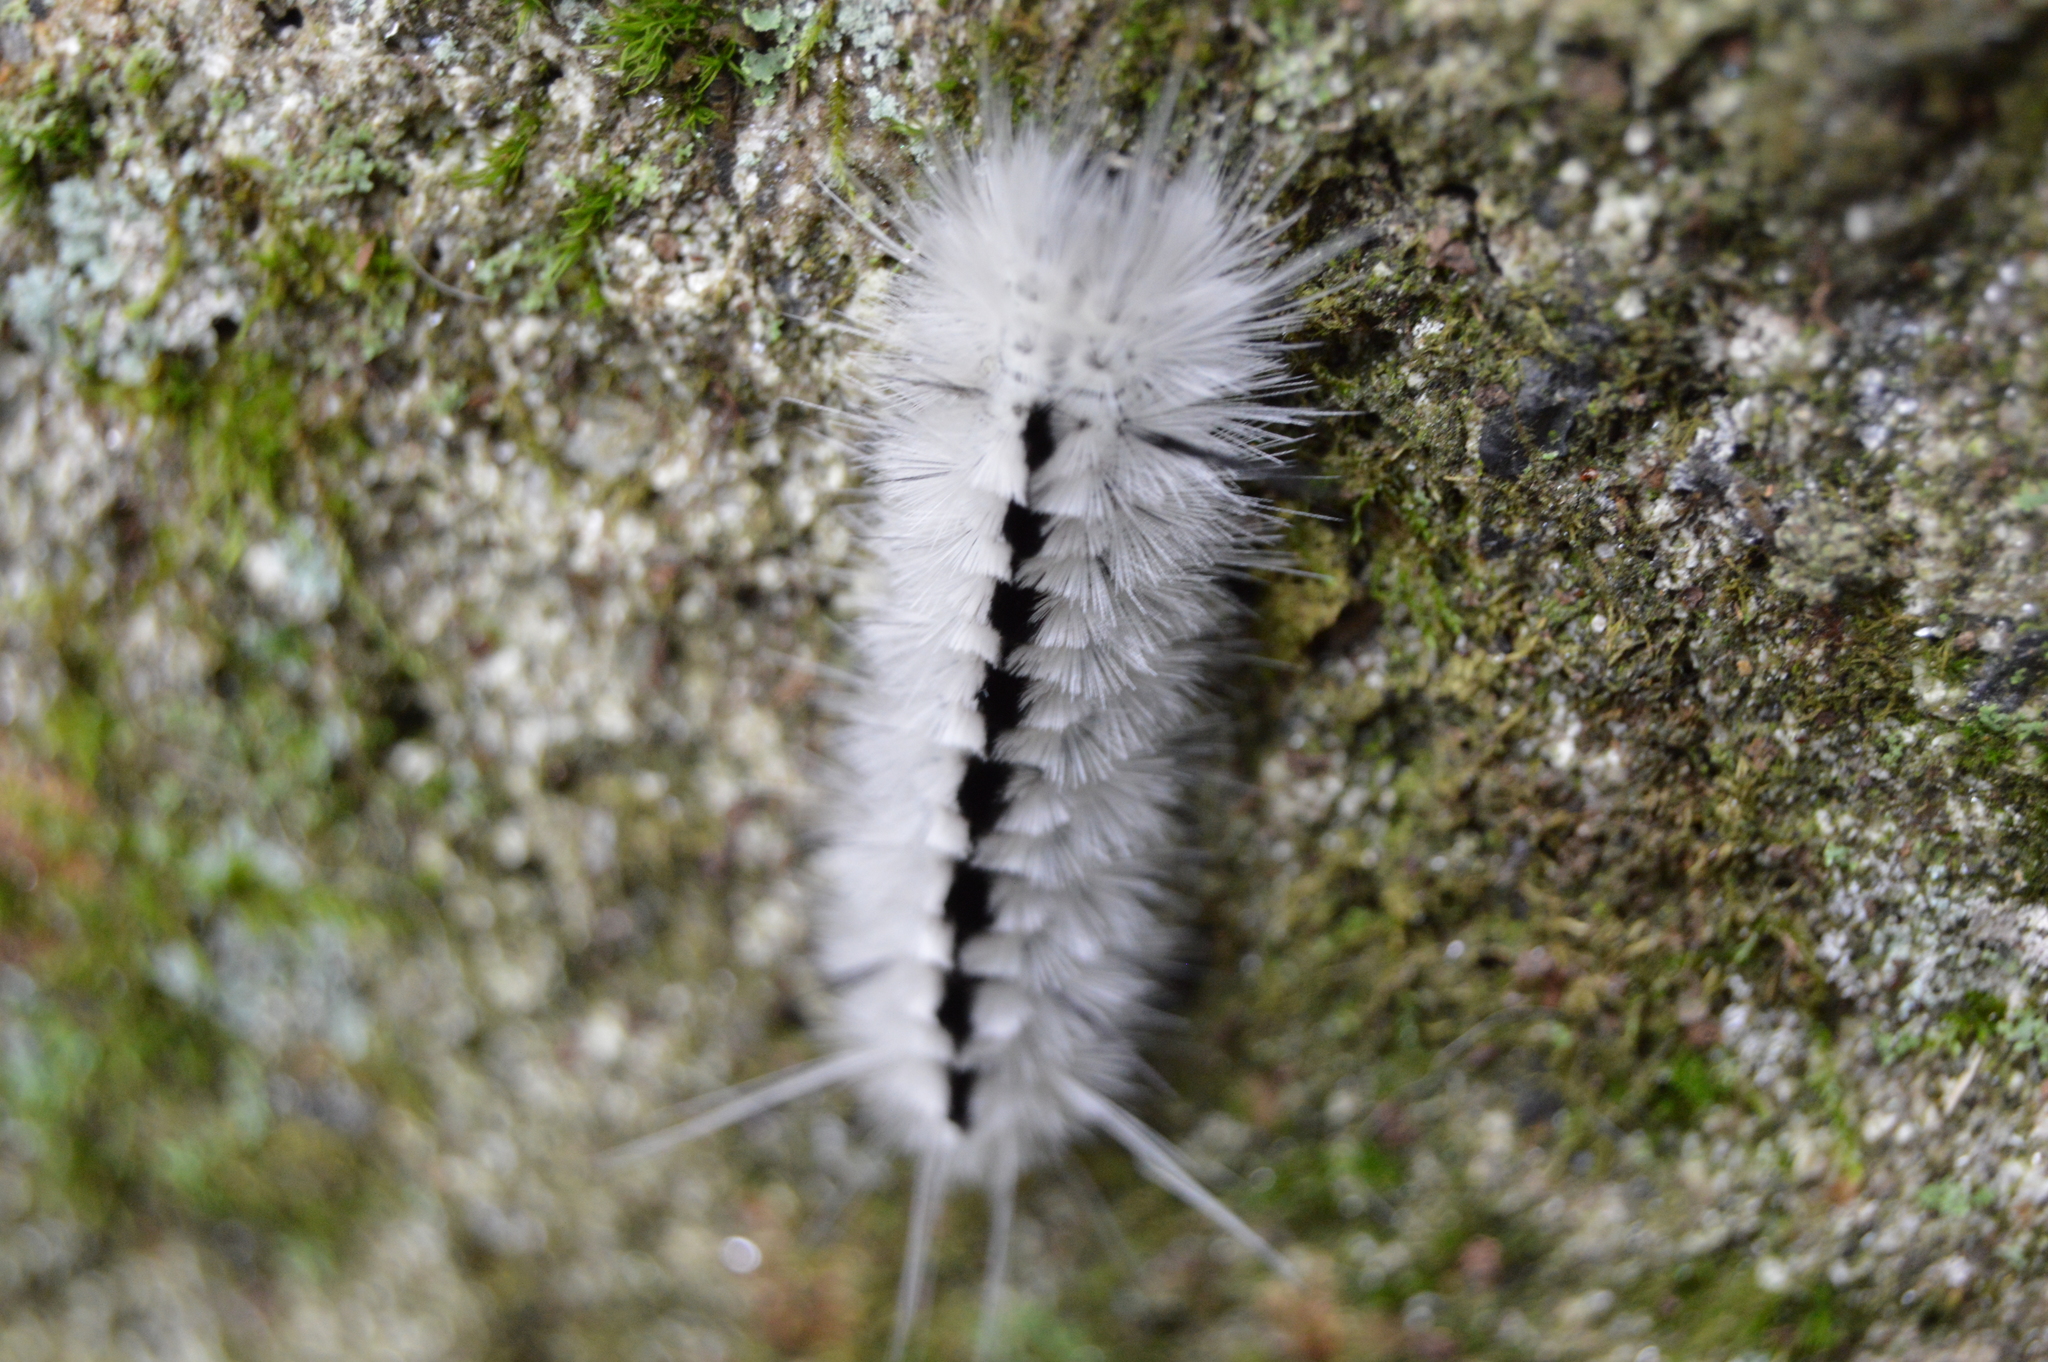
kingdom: Animalia
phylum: Arthropoda
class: Insecta
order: Lepidoptera
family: Erebidae
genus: Lophocampa
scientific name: Lophocampa caryae
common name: Hickory tussock moth
